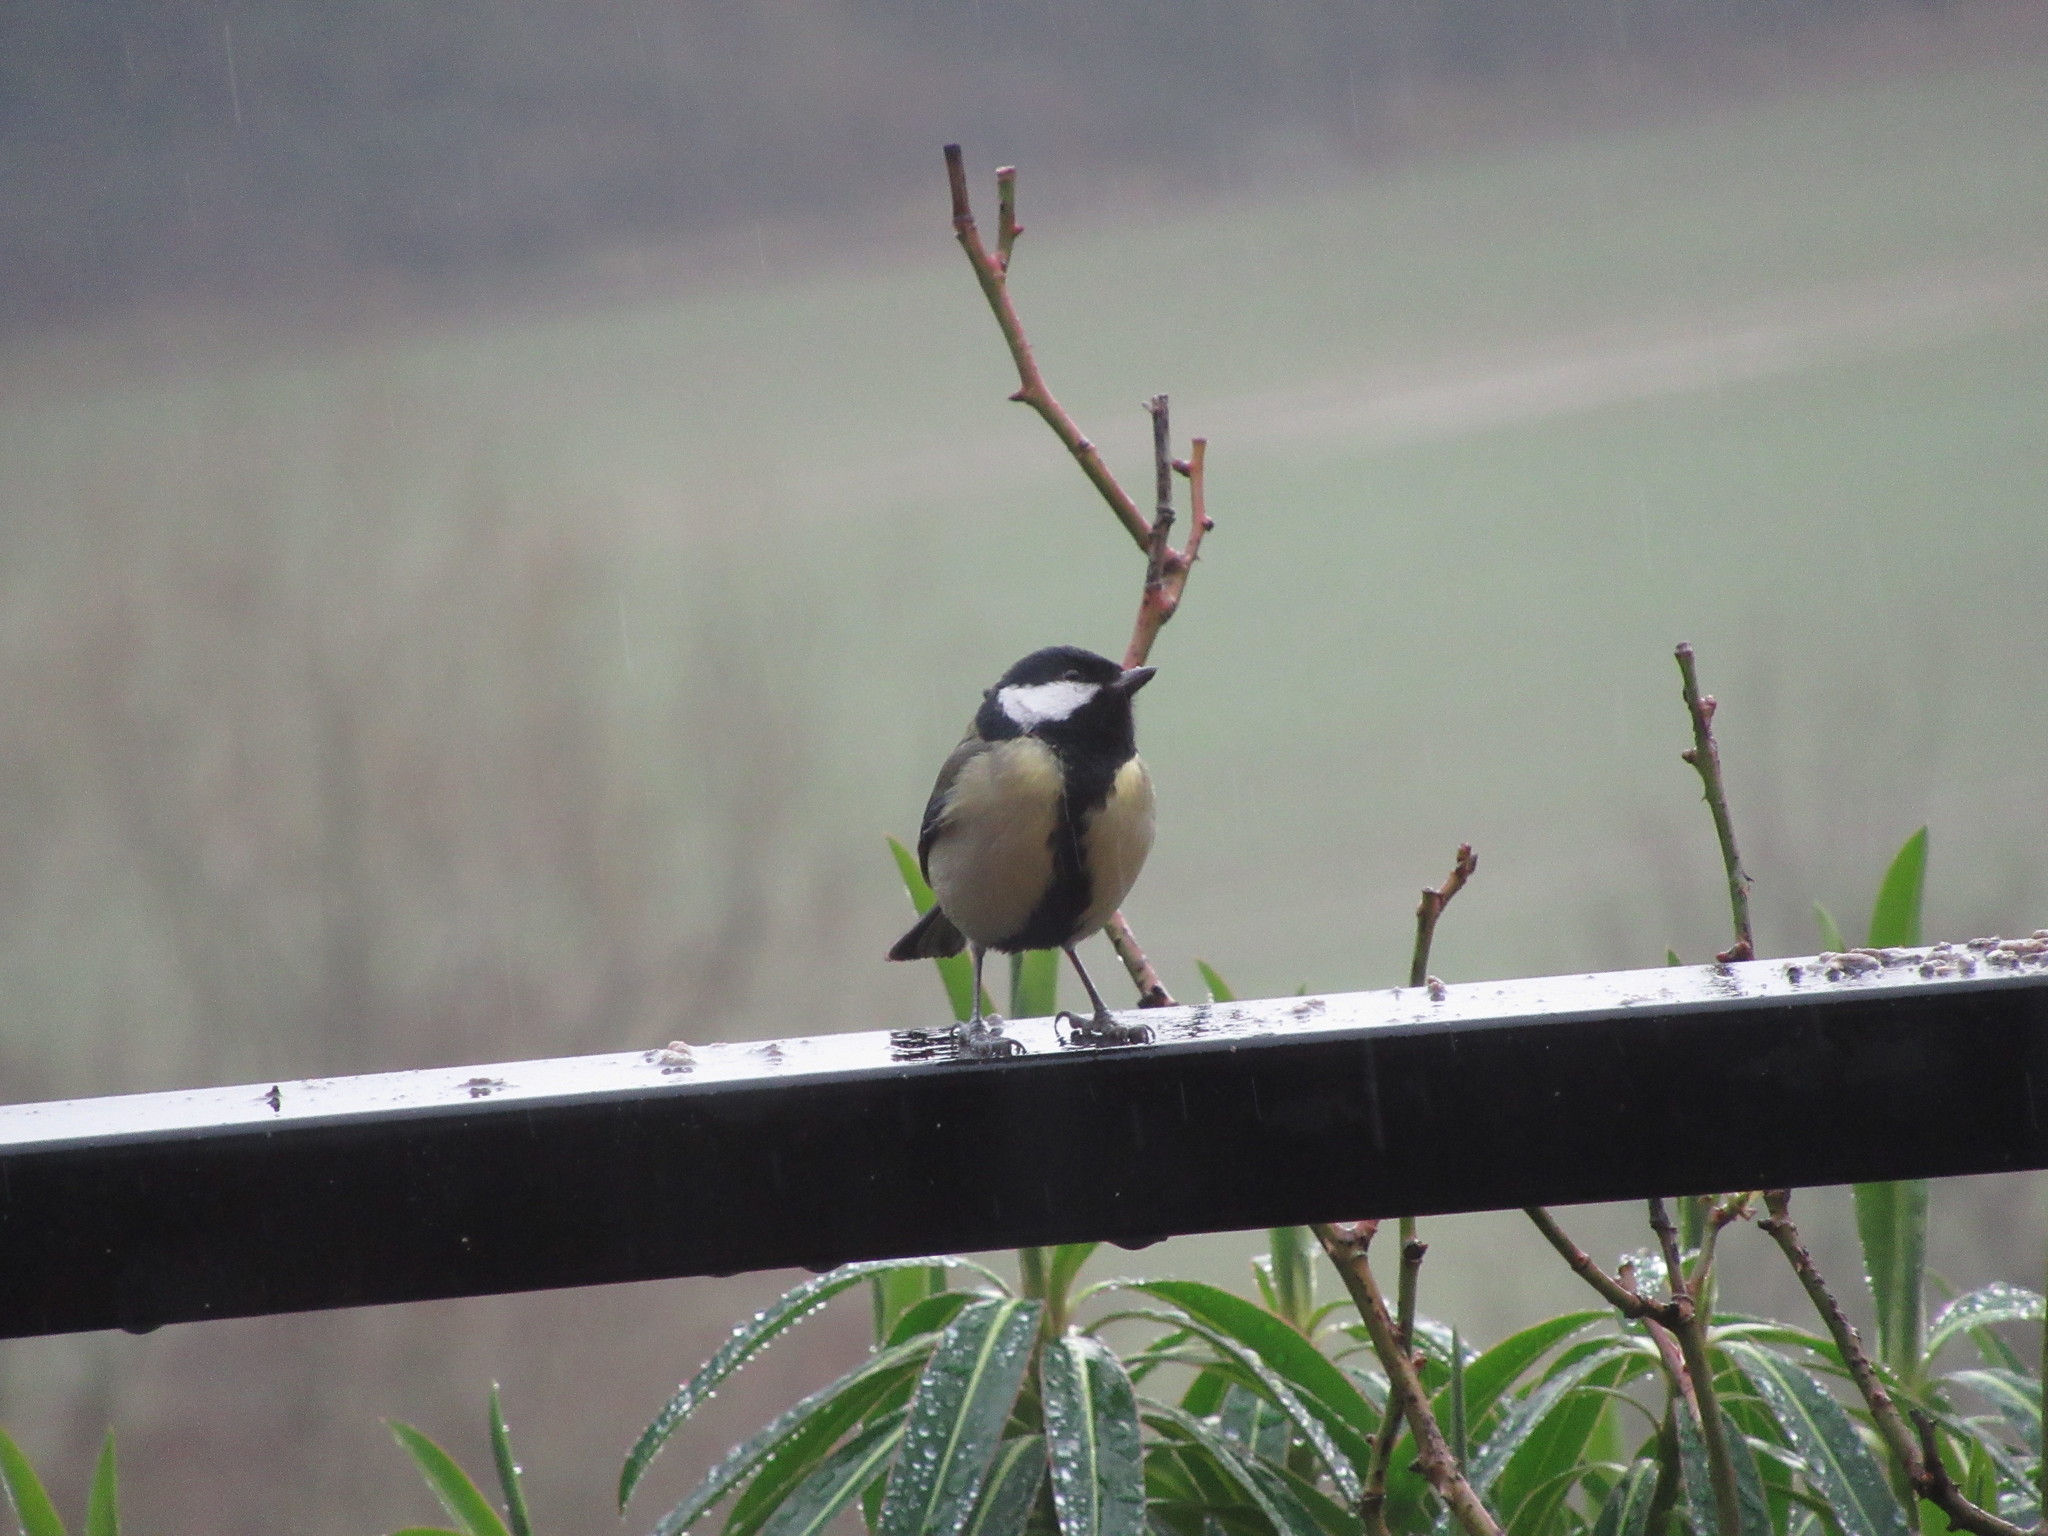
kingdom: Animalia
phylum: Chordata
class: Aves
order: Passeriformes
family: Paridae
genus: Parus
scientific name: Parus major
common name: Great tit
